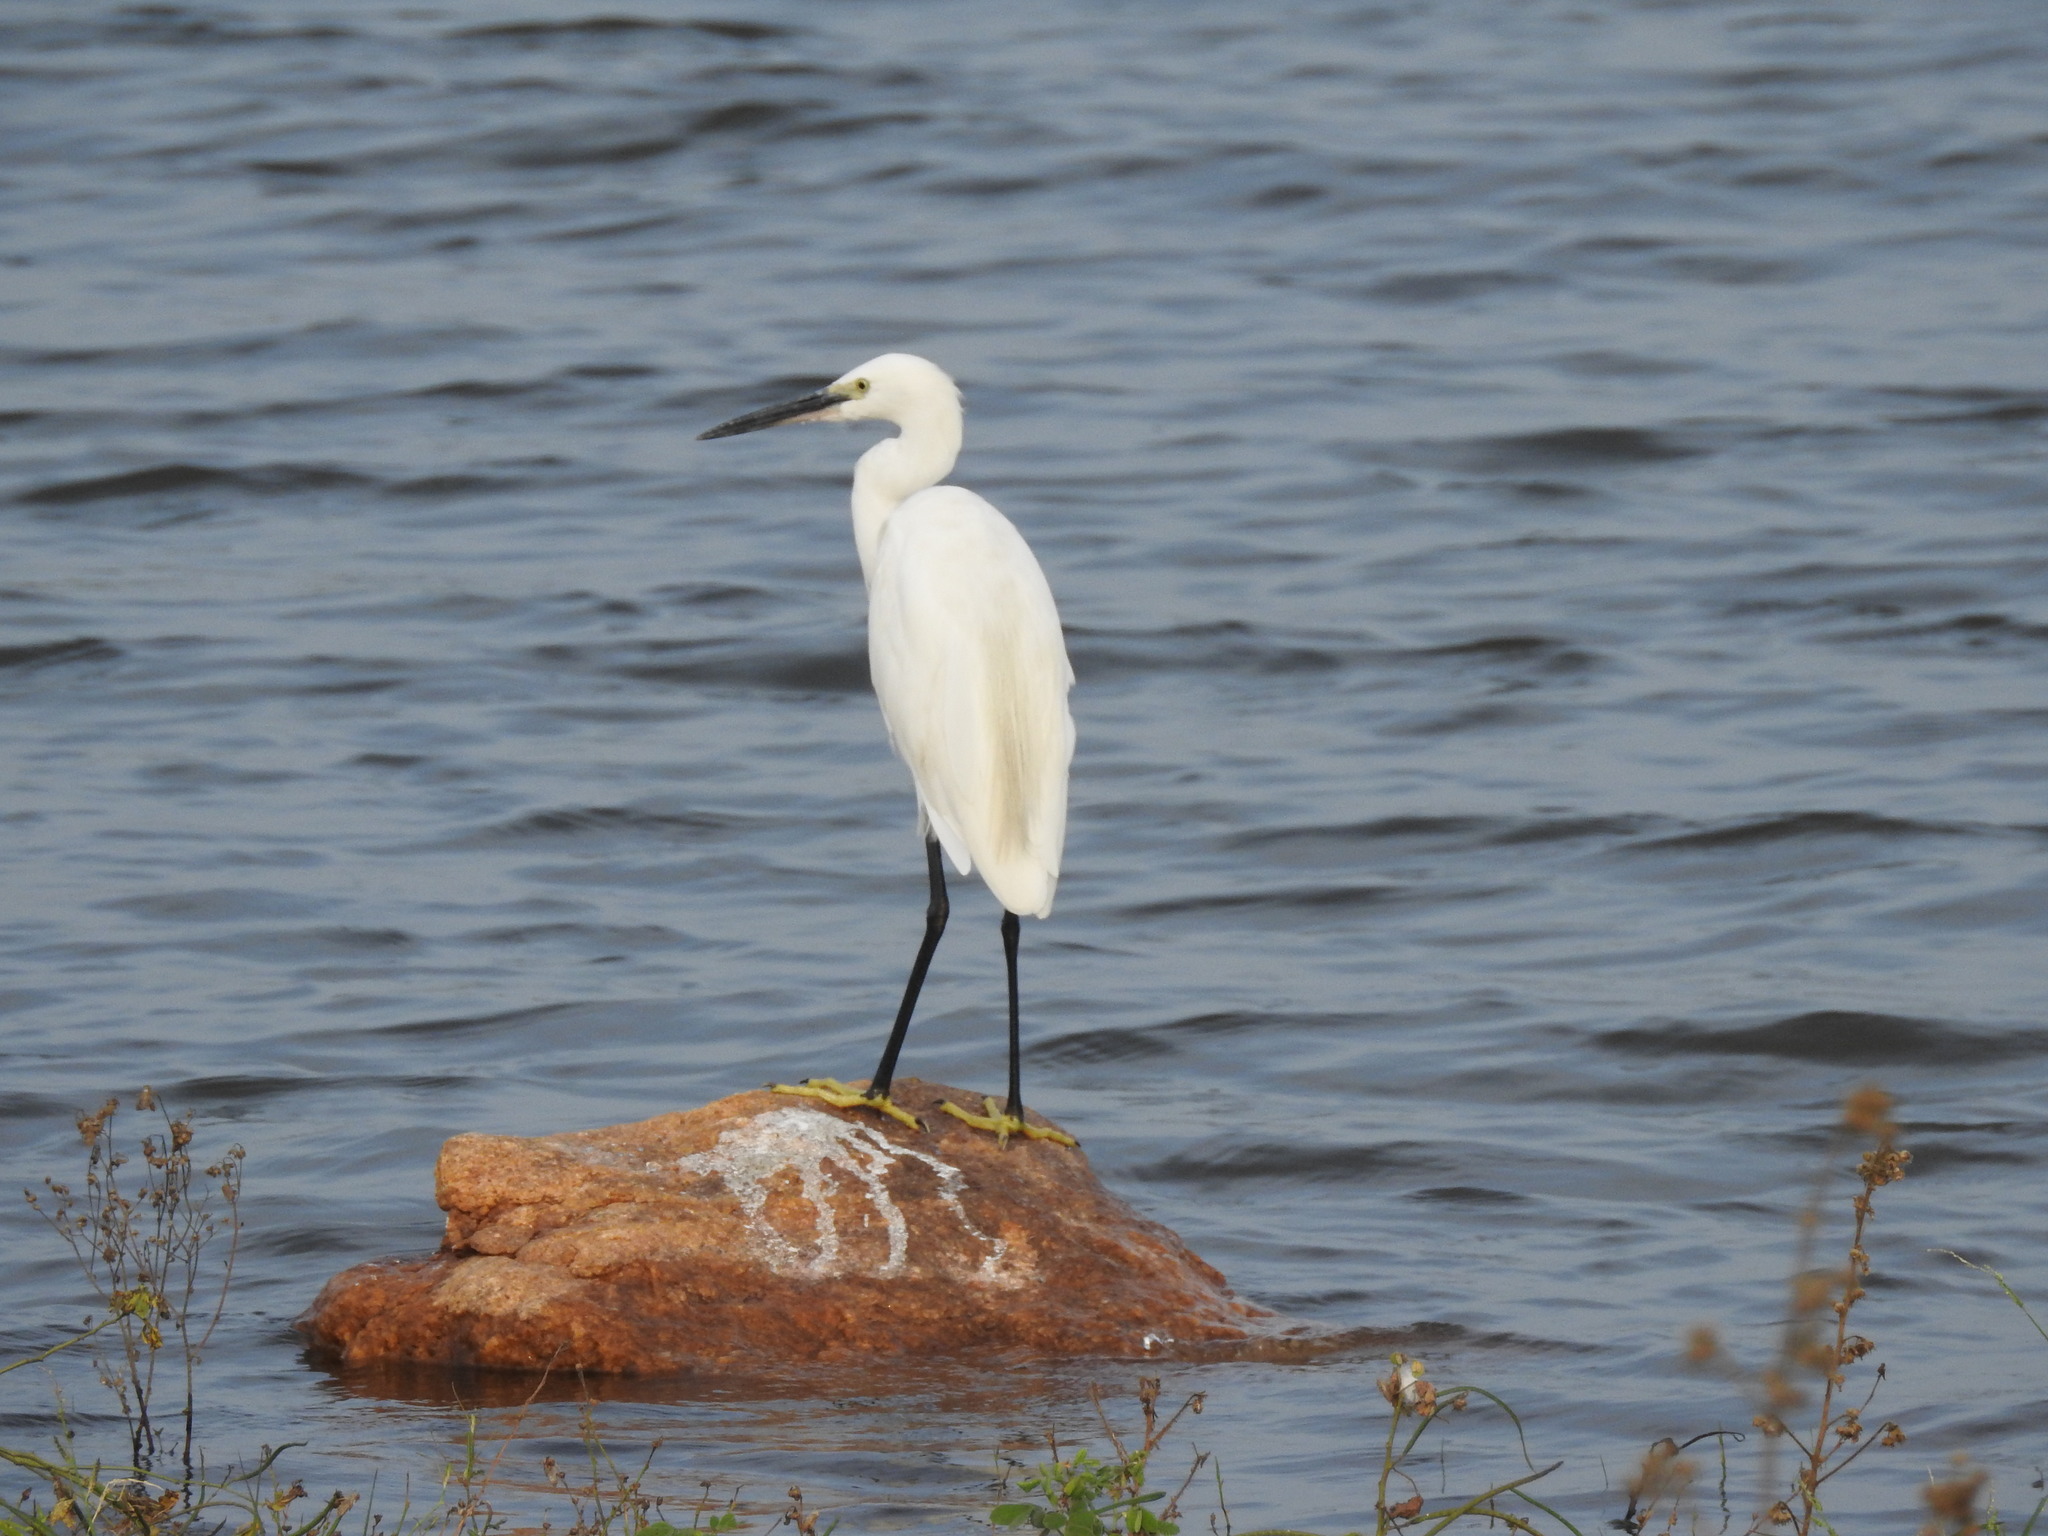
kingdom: Animalia
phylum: Chordata
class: Aves
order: Pelecaniformes
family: Ardeidae
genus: Egretta
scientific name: Egretta garzetta
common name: Little egret
